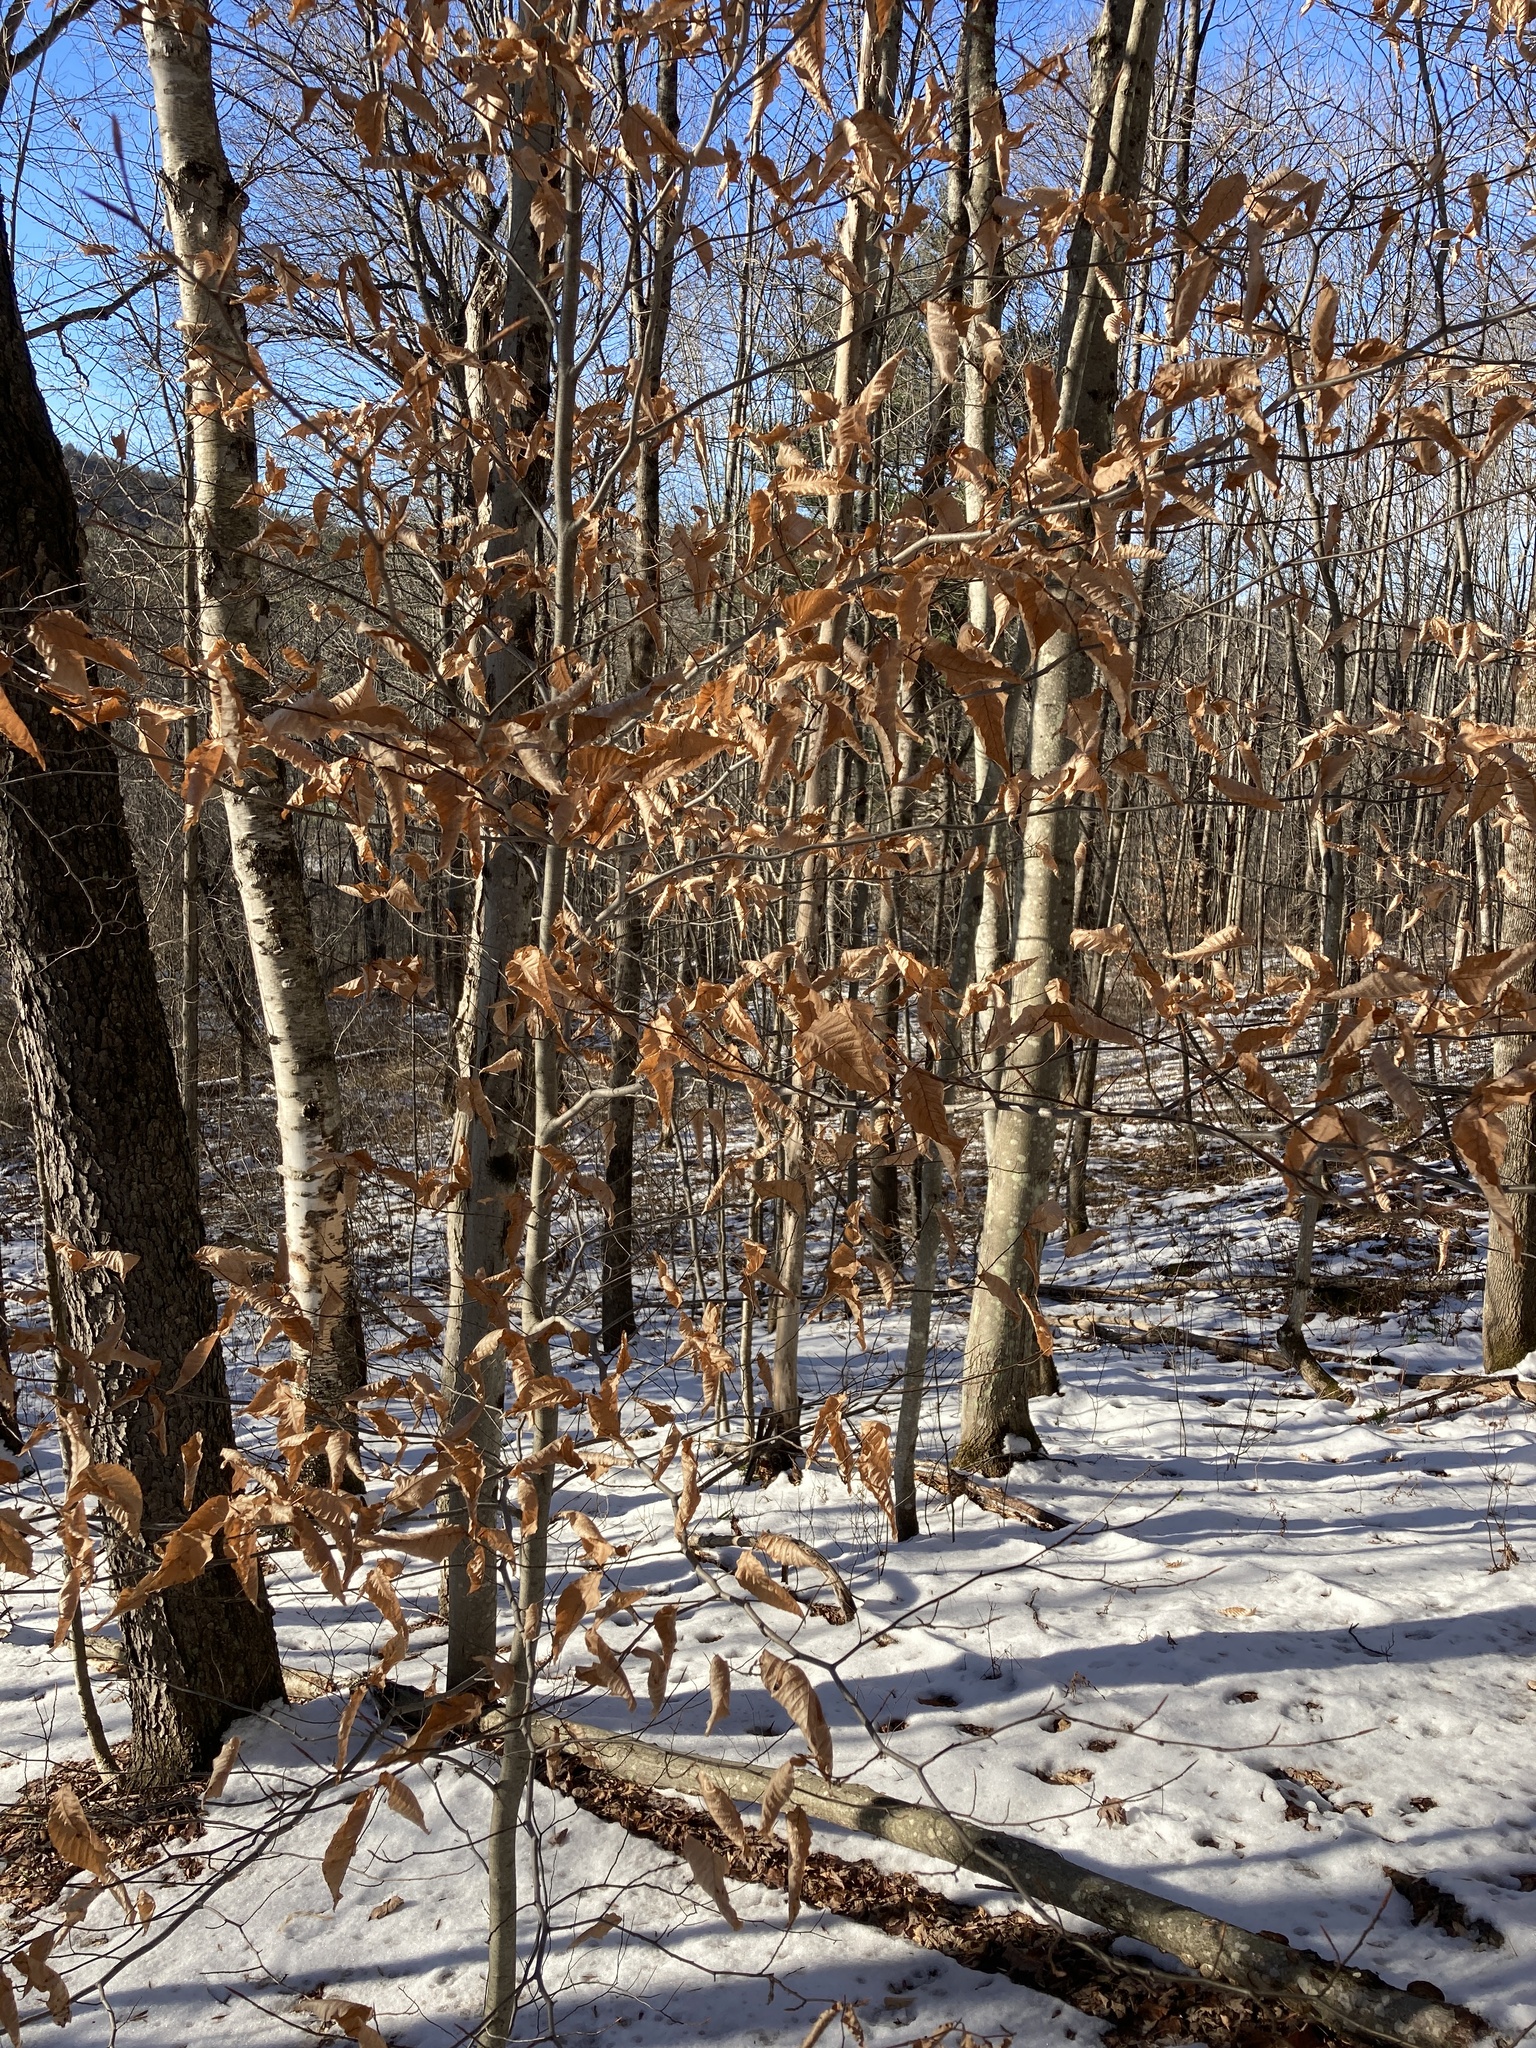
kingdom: Plantae
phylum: Tracheophyta
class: Magnoliopsida
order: Fagales
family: Fagaceae
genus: Fagus
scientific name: Fagus grandifolia
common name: American beech
